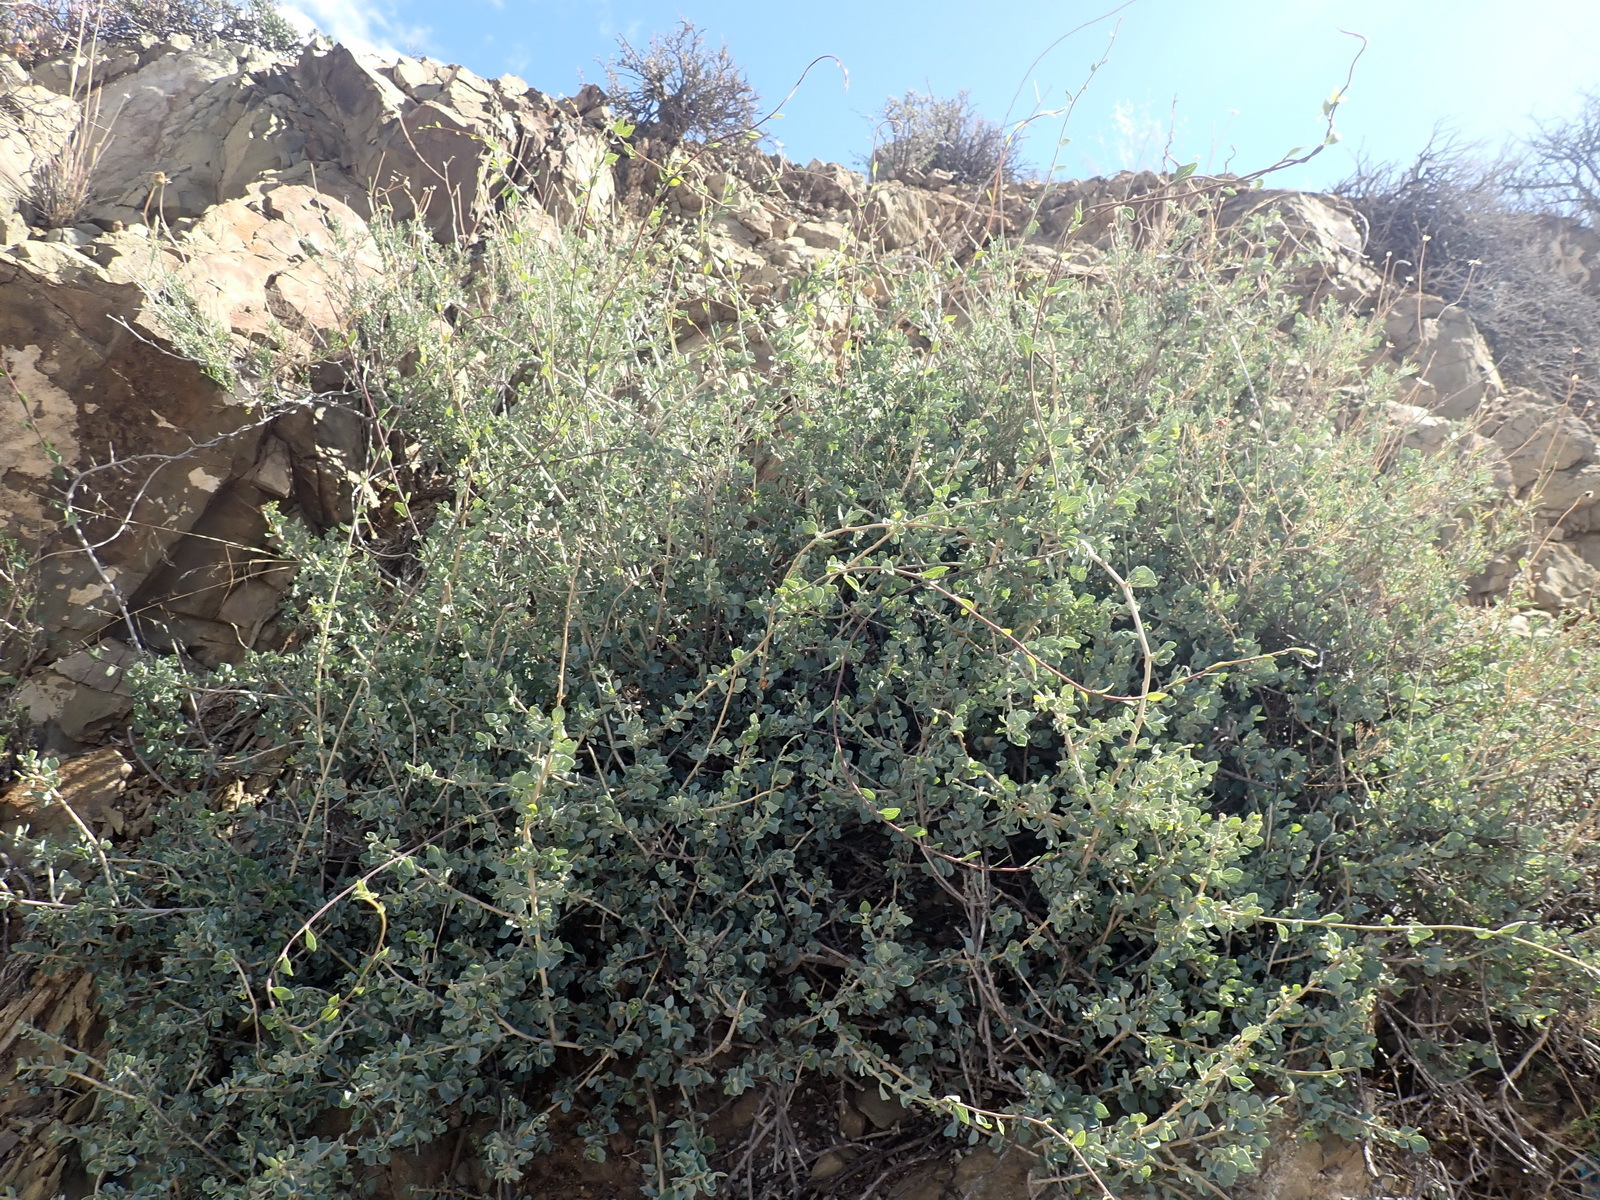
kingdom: Plantae
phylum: Tracheophyta
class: Magnoliopsida
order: Ranunculales
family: Menispermaceae
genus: Cissampelos
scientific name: Cissampelos capensis
